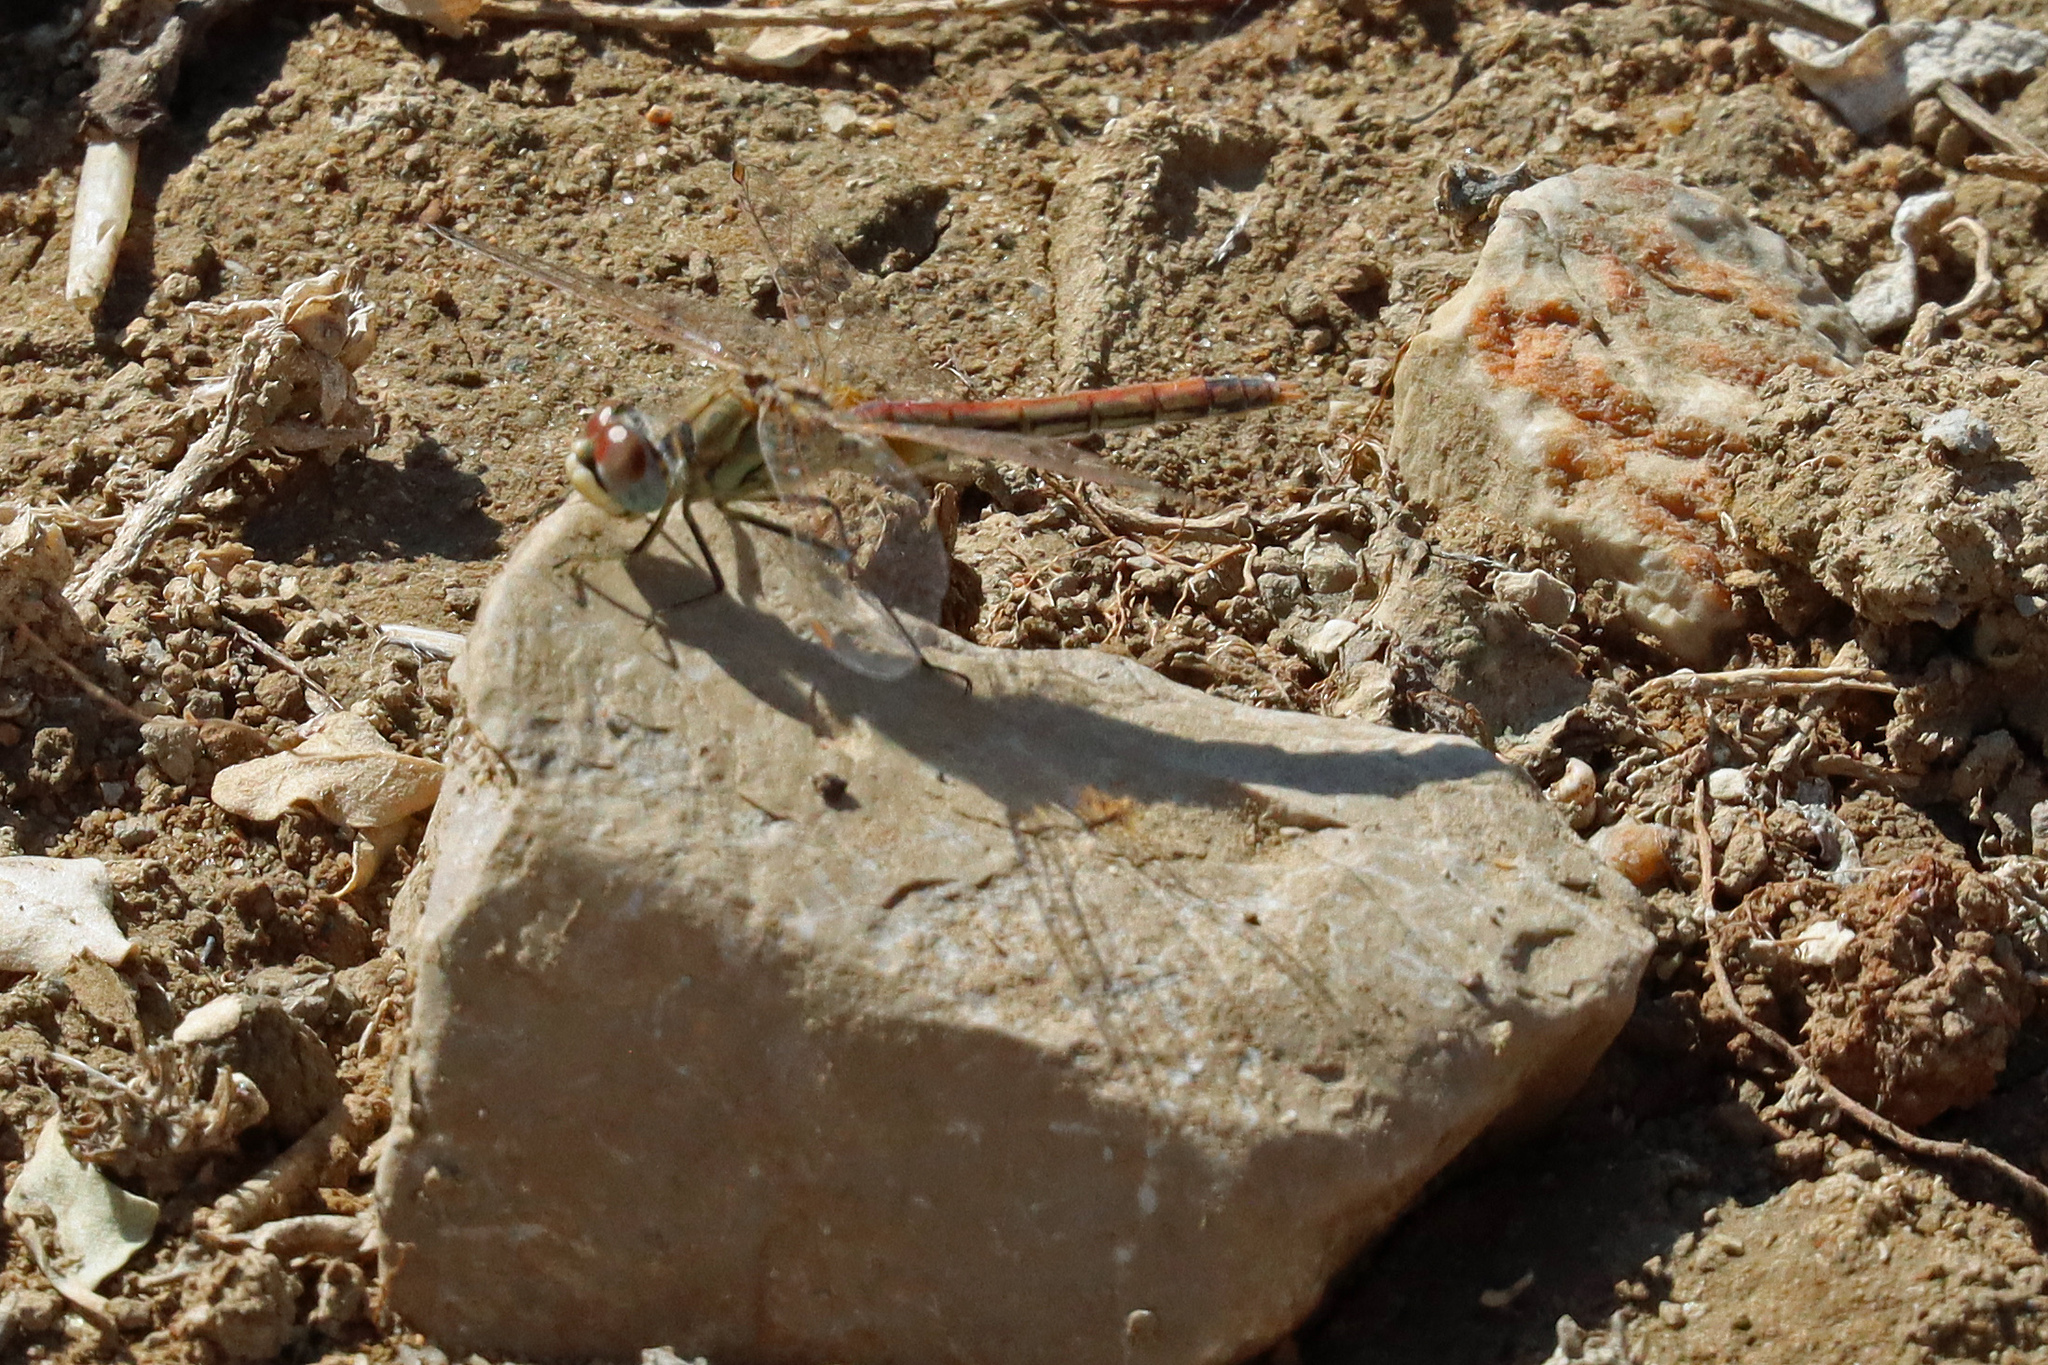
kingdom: Animalia
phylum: Arthropoda
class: Insecta
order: Odonata
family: Libellulidae
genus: Sympetrum
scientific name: Sympetrum fonscolombii
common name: Red-veined darter
